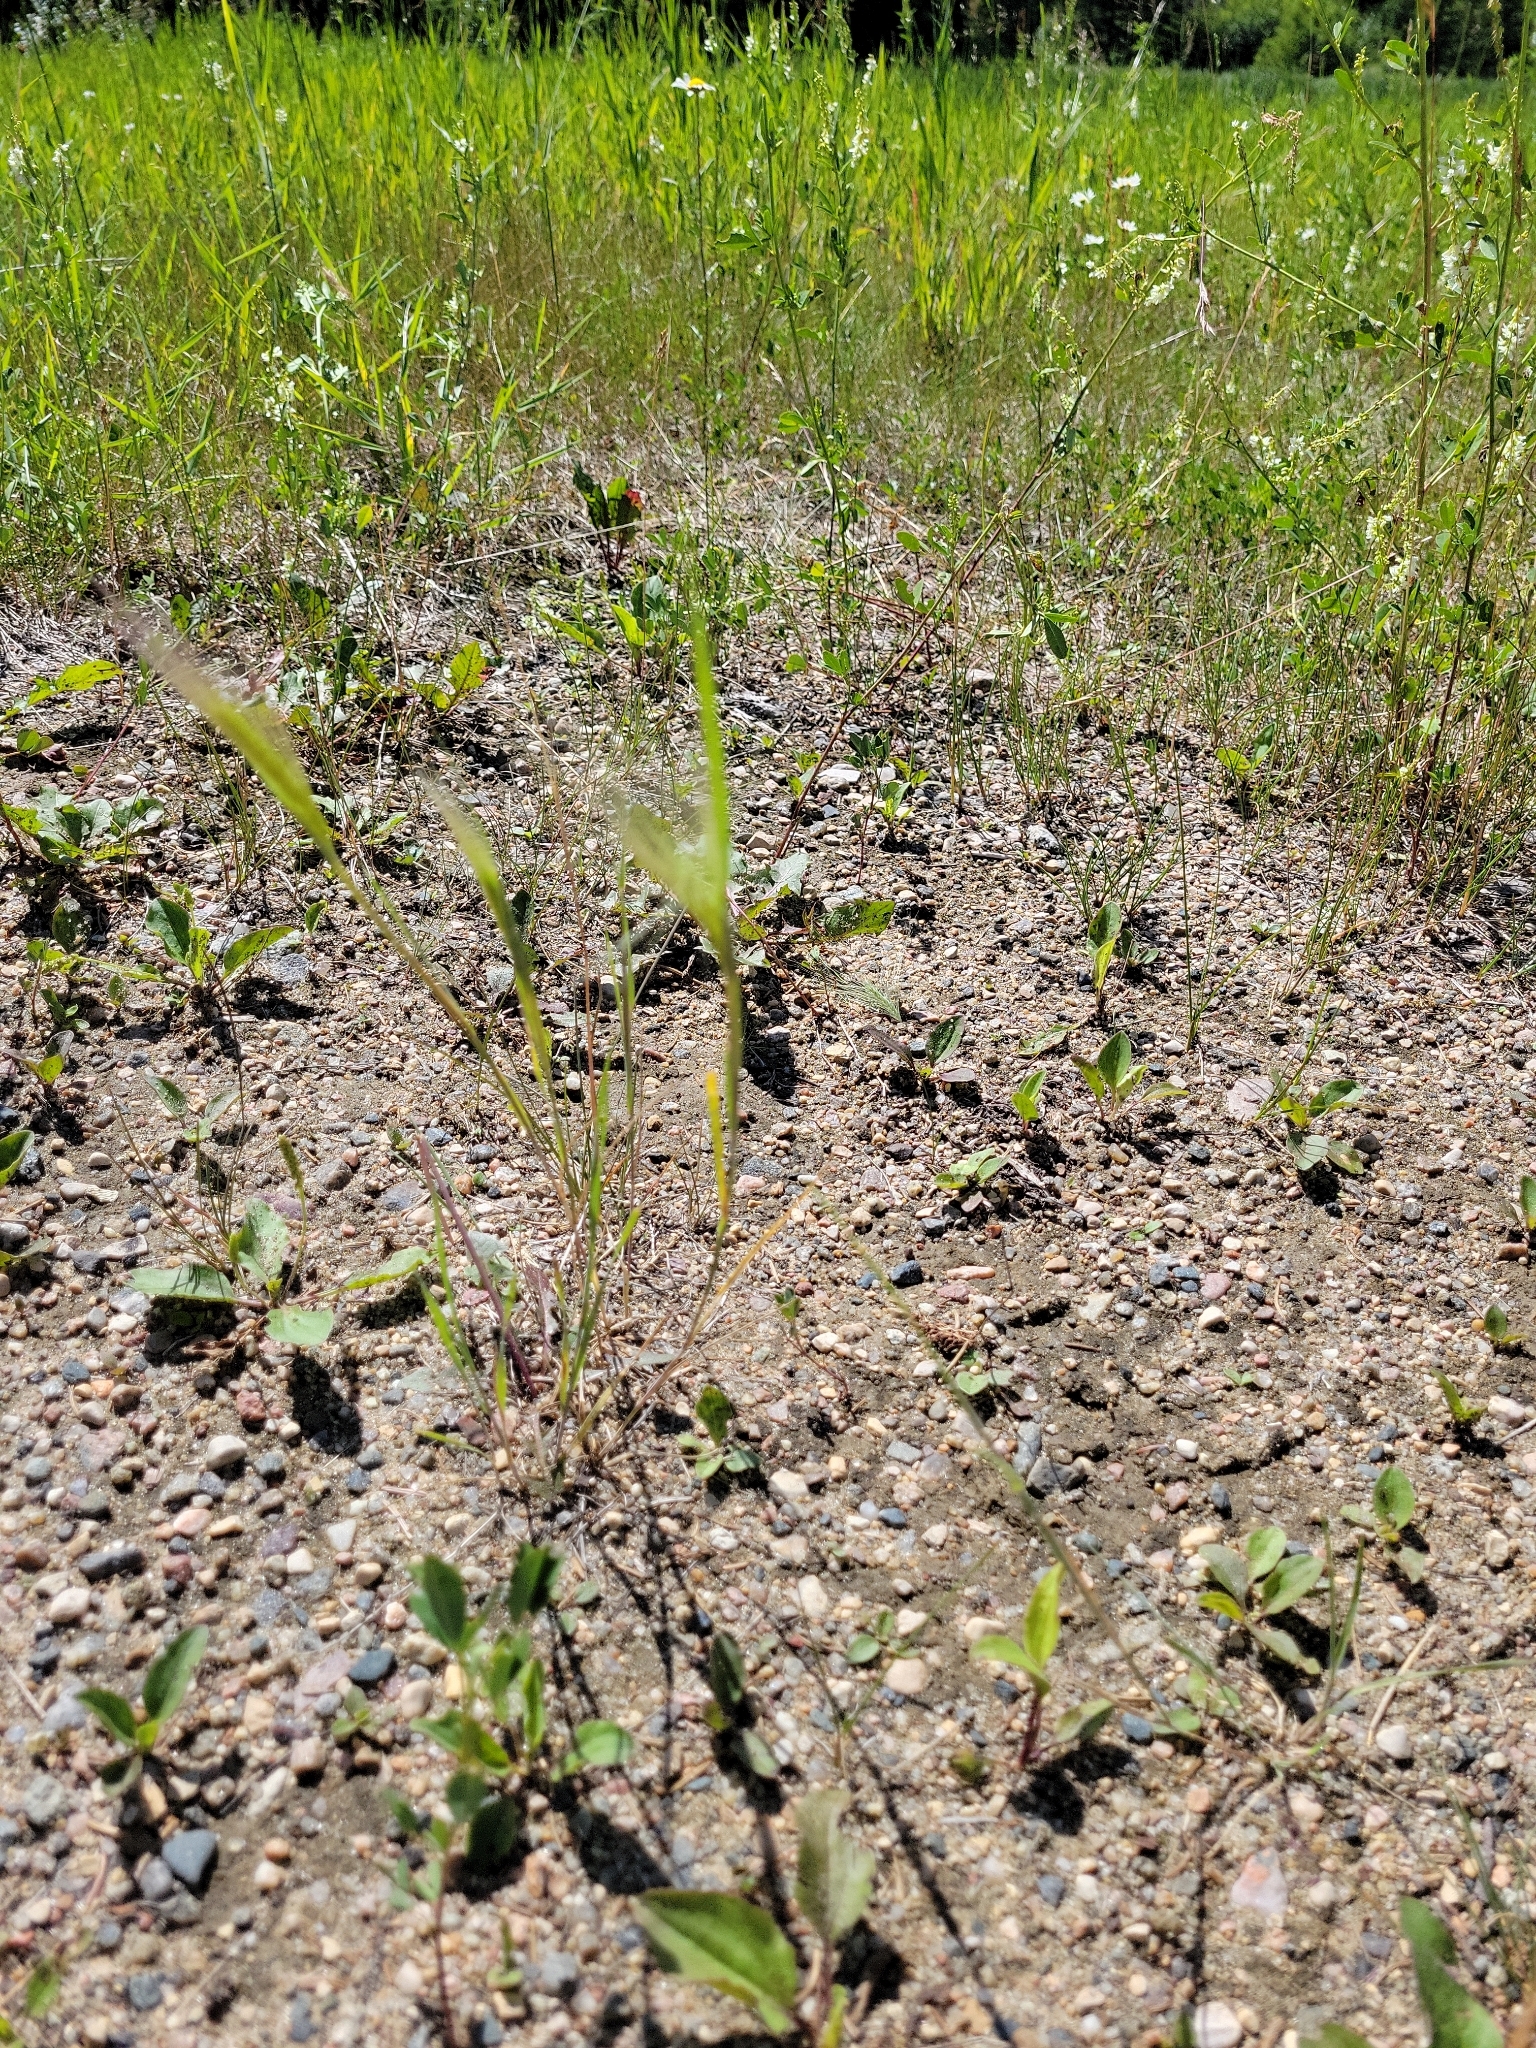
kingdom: Plantae
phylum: Tracheophyta
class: Liliopsida
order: Poales
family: Poaceae
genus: Hordeum
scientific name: Hordeum jubatum
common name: Foxtail barley
